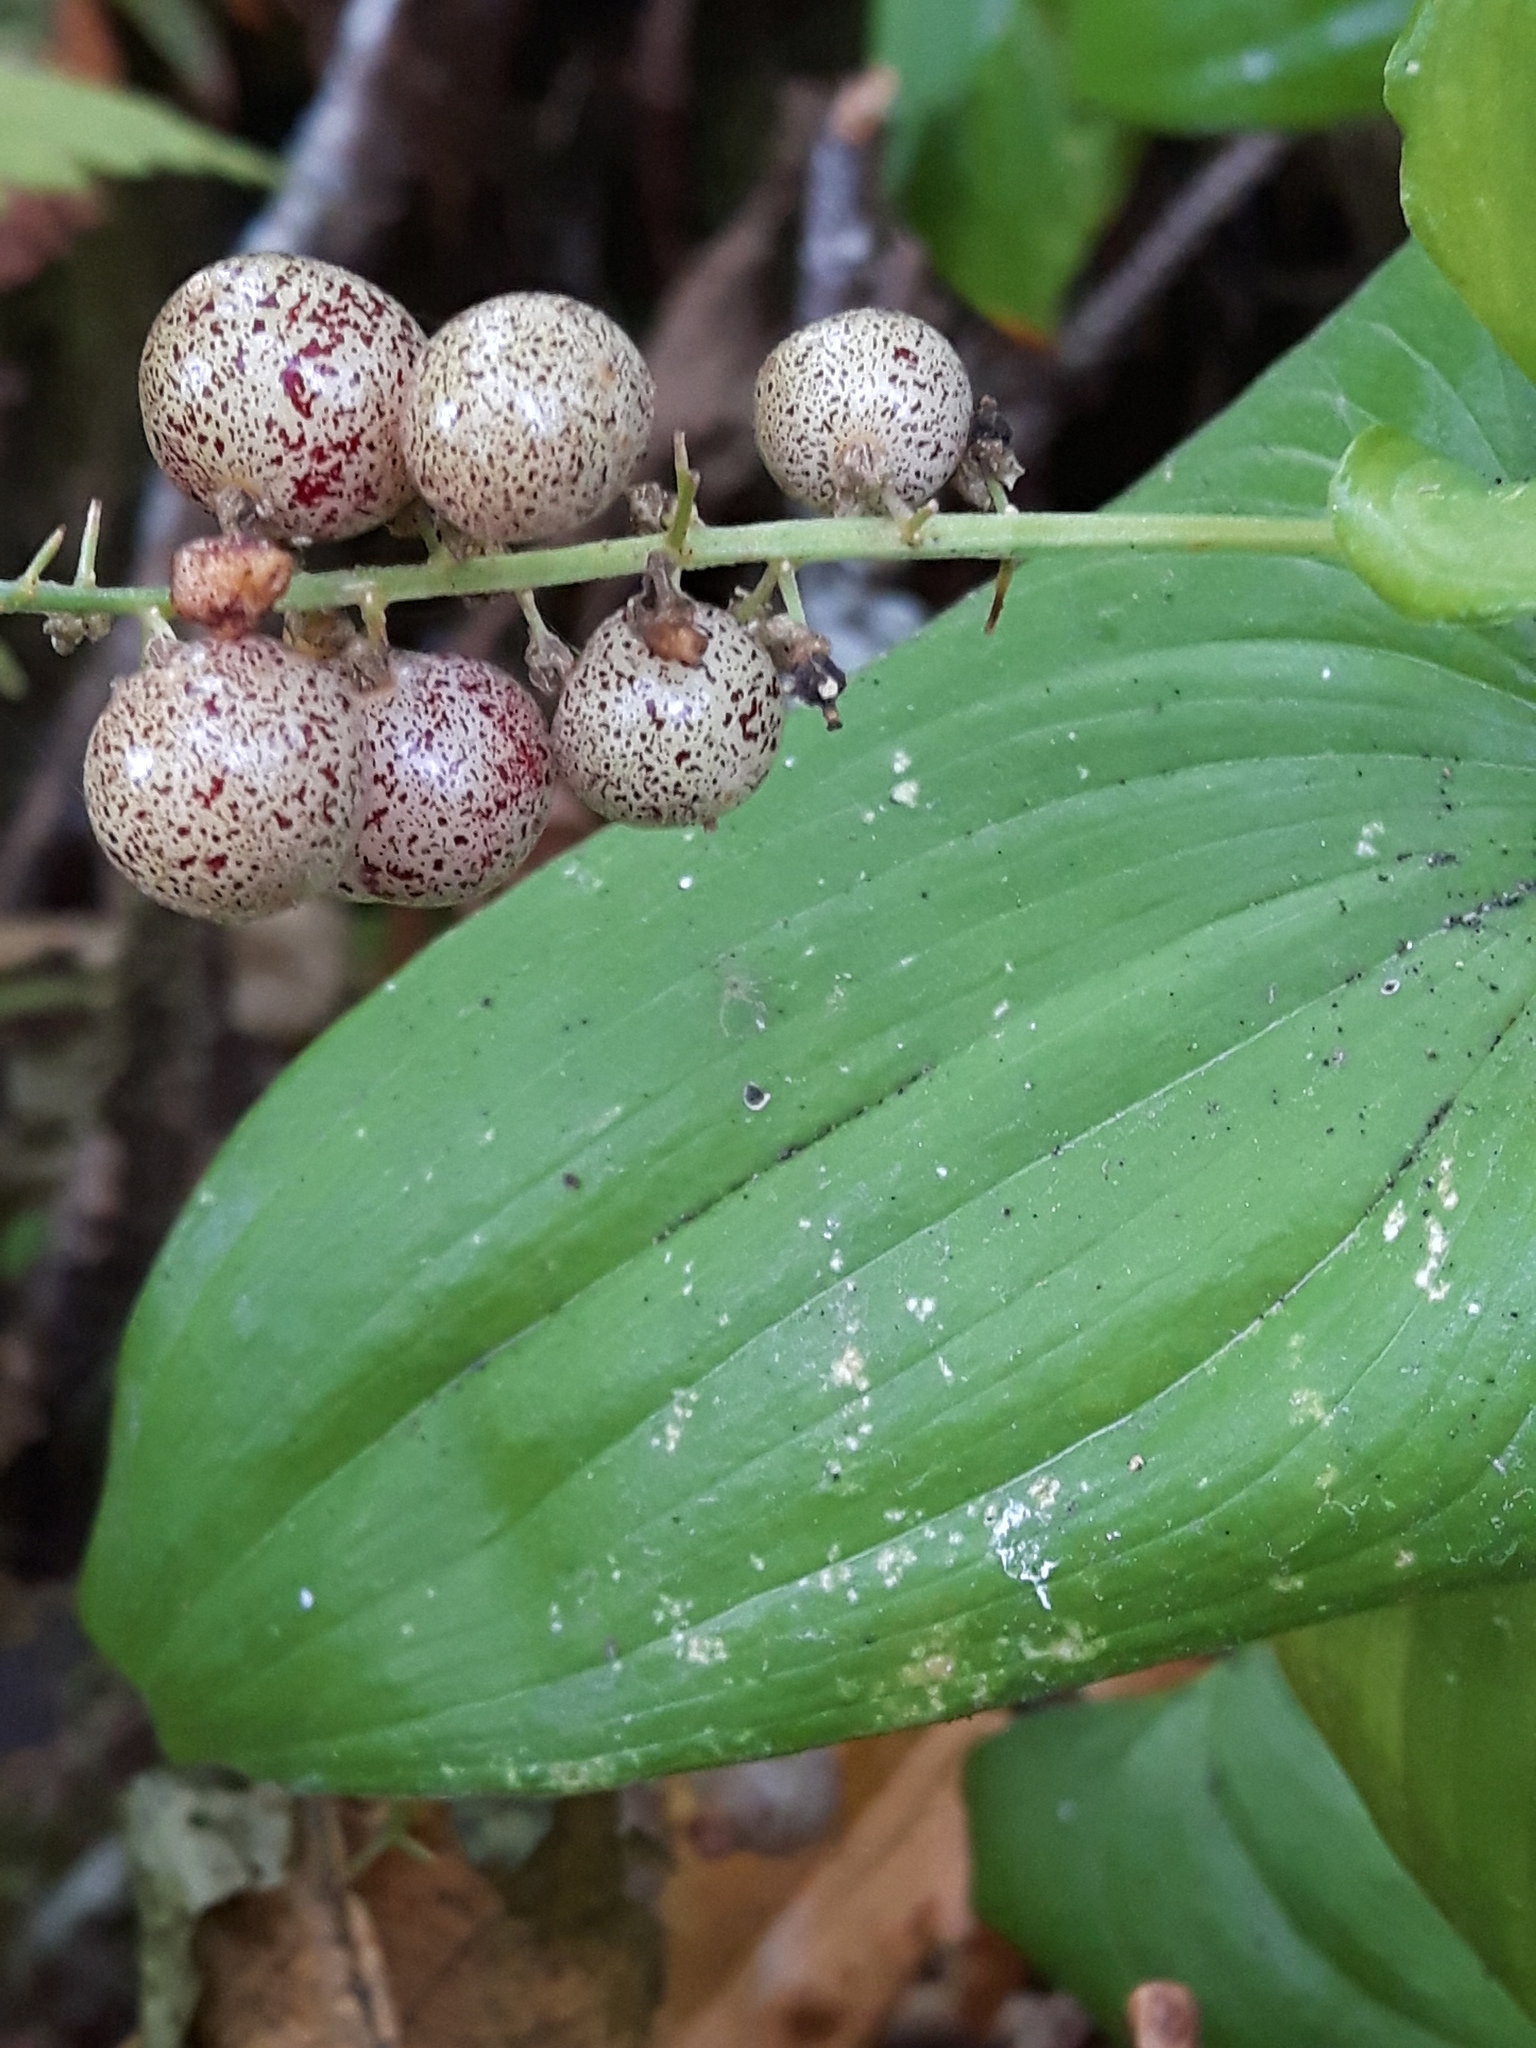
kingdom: Plantae
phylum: Tracheophyta
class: Liliopsida
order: Asparagales
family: Asparagaceae
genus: Maianthemum
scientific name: Maianthemum dilatatum
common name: False lily-of-the-valley
